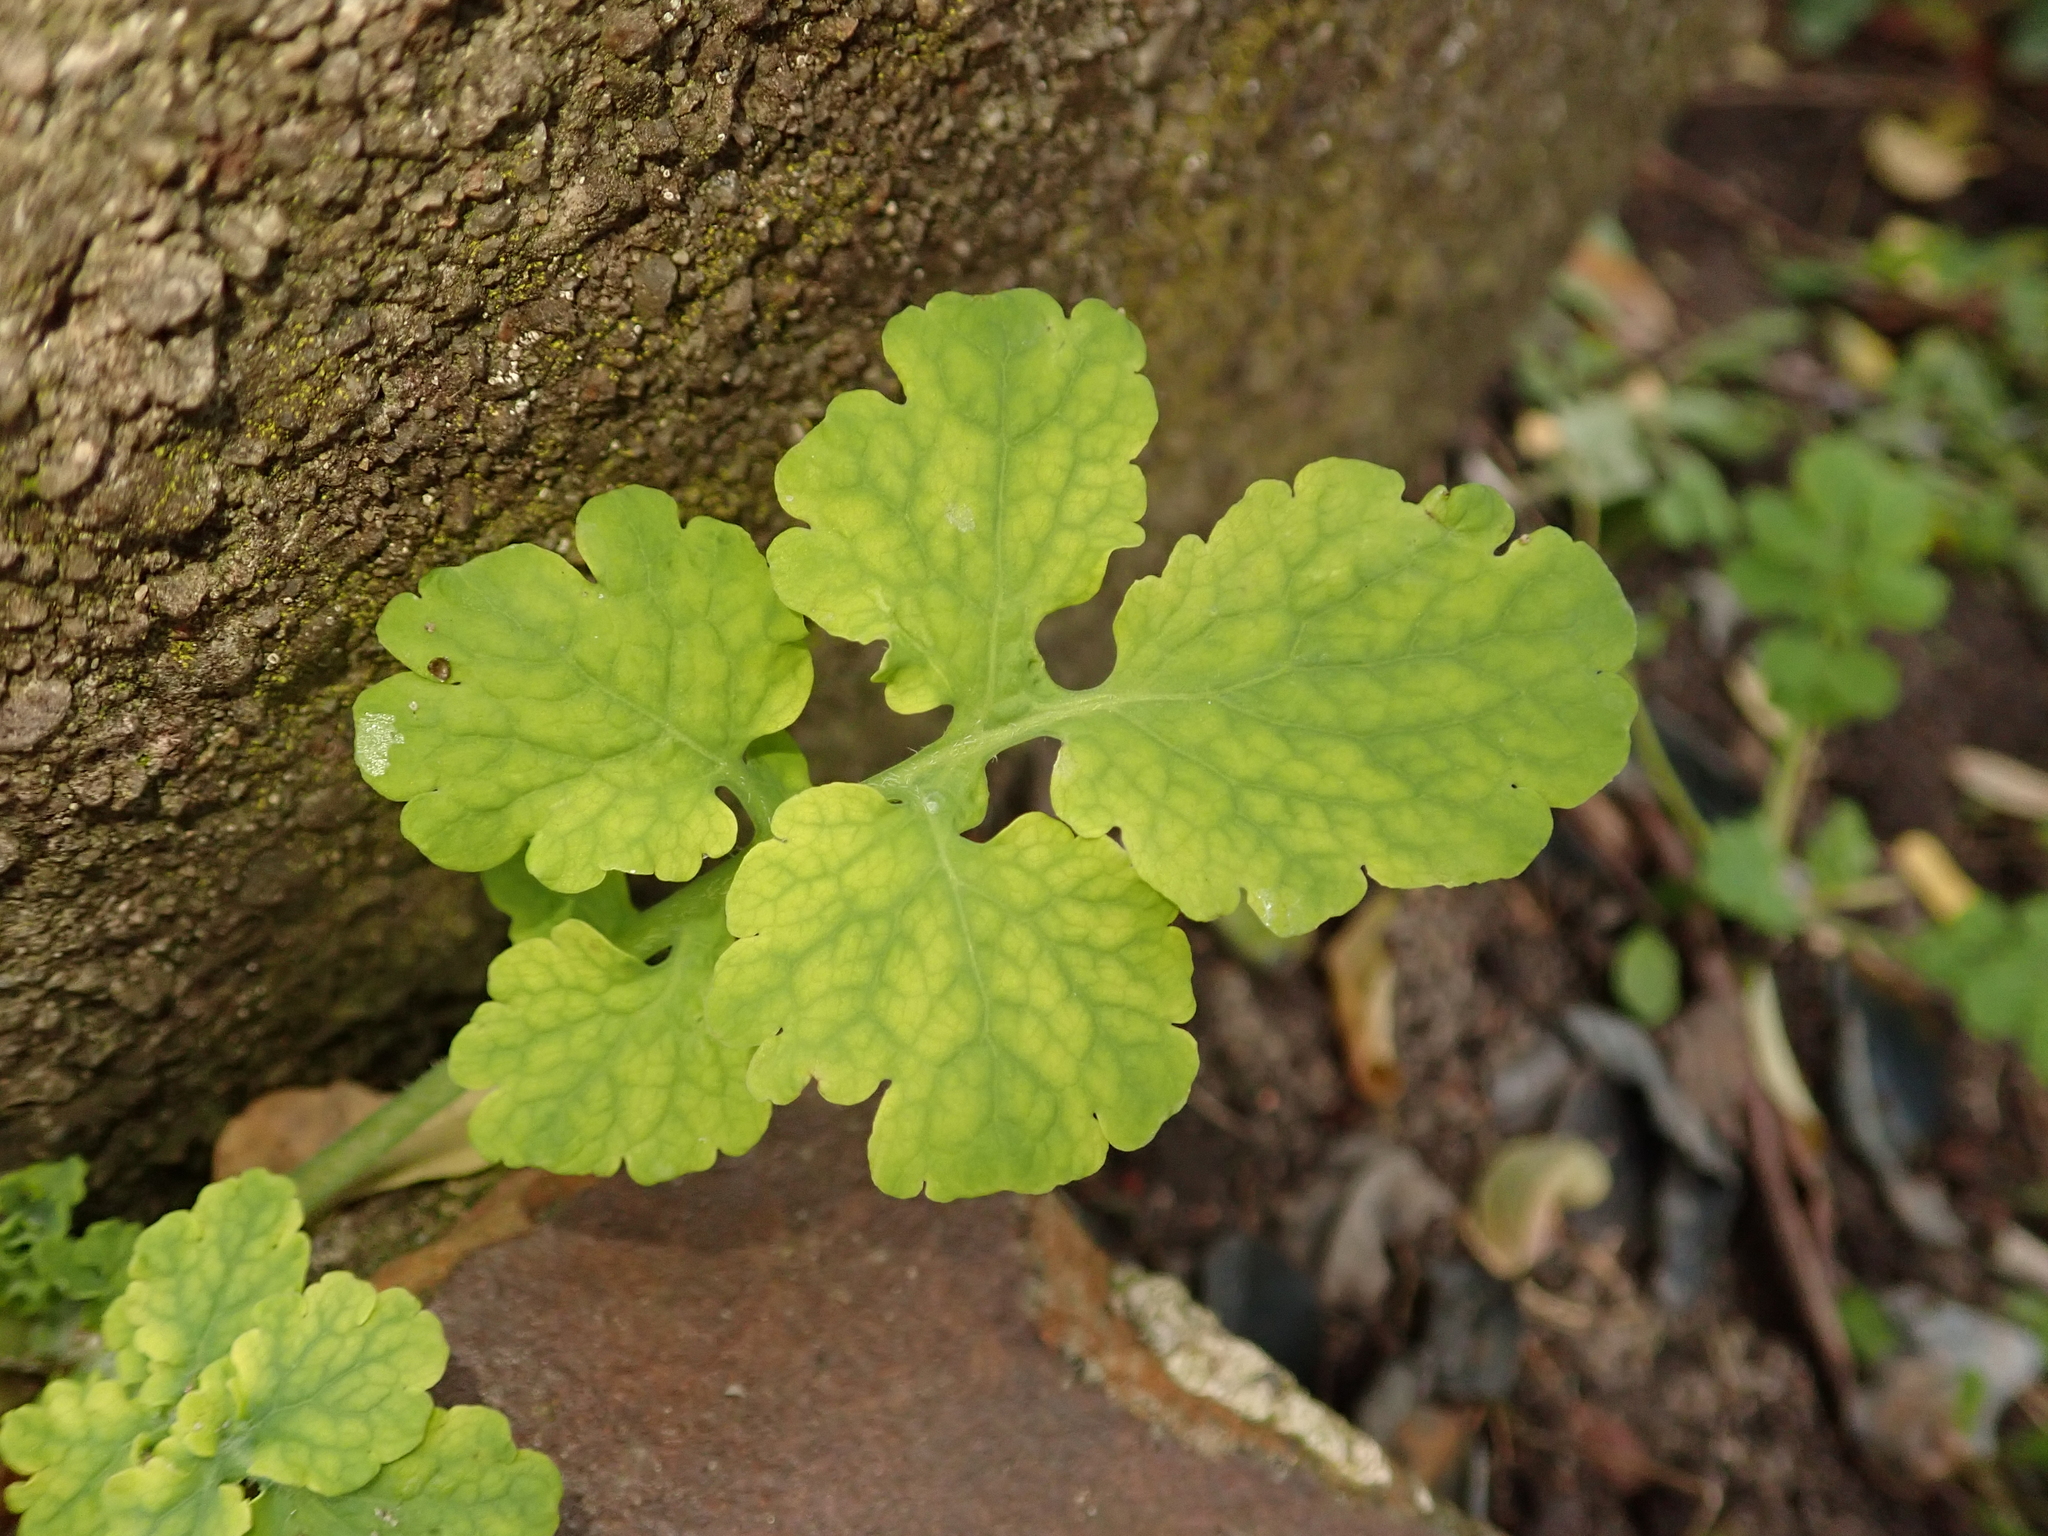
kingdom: Plantae
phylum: Tracheophyta
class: Magnoliopsida
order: Ranunculales
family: Papaveraceae
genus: Chelidonium
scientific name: Chelidonium majus
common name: Greater celandine
